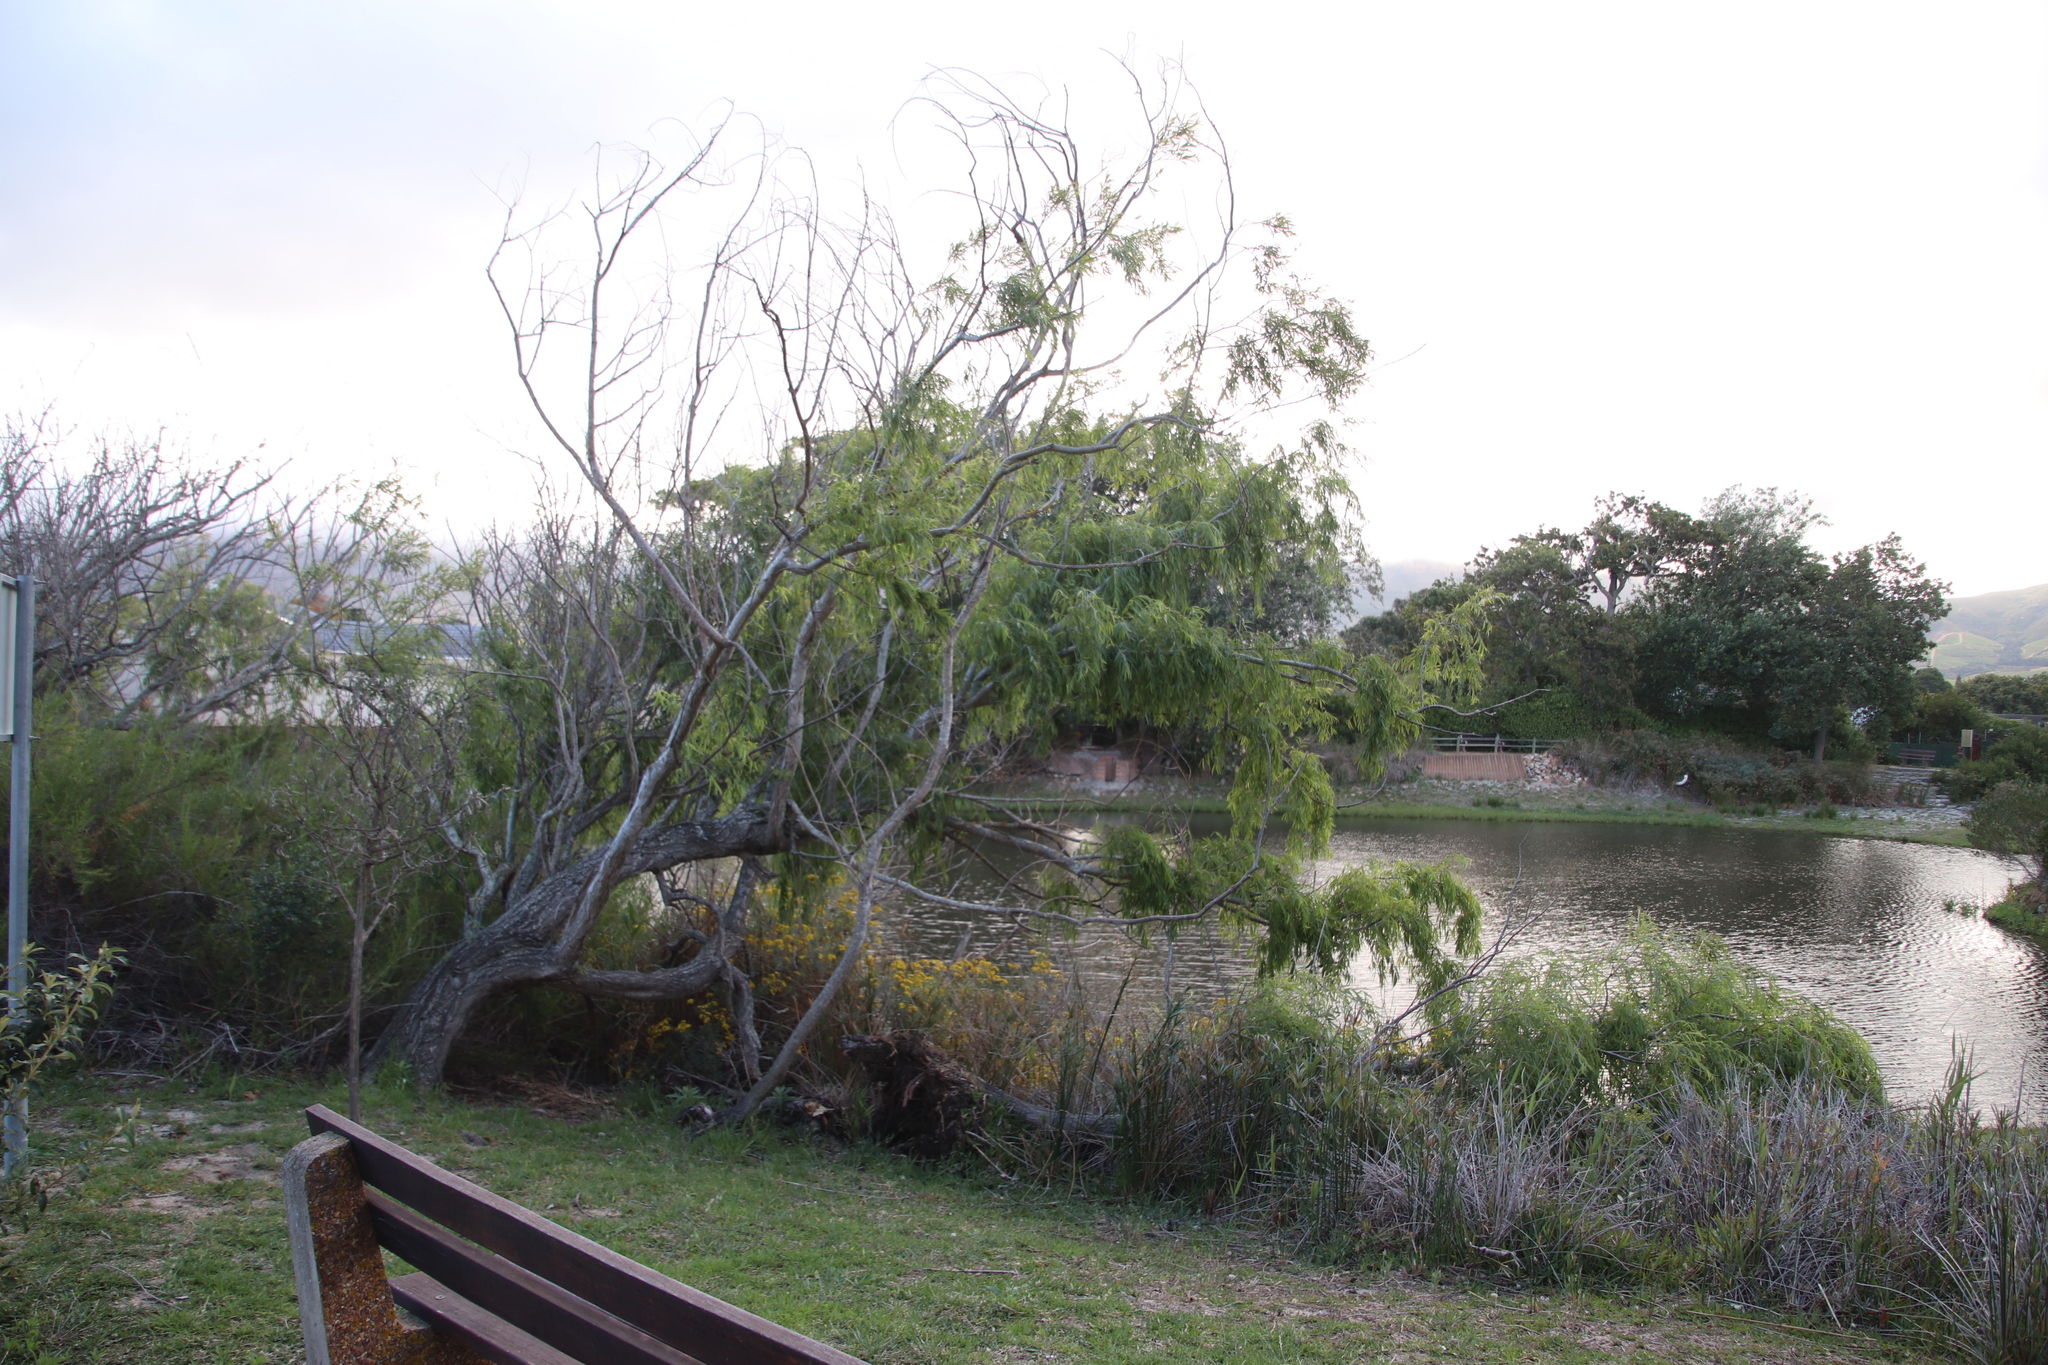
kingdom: Plantae
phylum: Tracheophyta
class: Magnoliopsida
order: Malpighiales
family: Salicaceae
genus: Salix
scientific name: Salix babylonica
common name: Weeping willow
